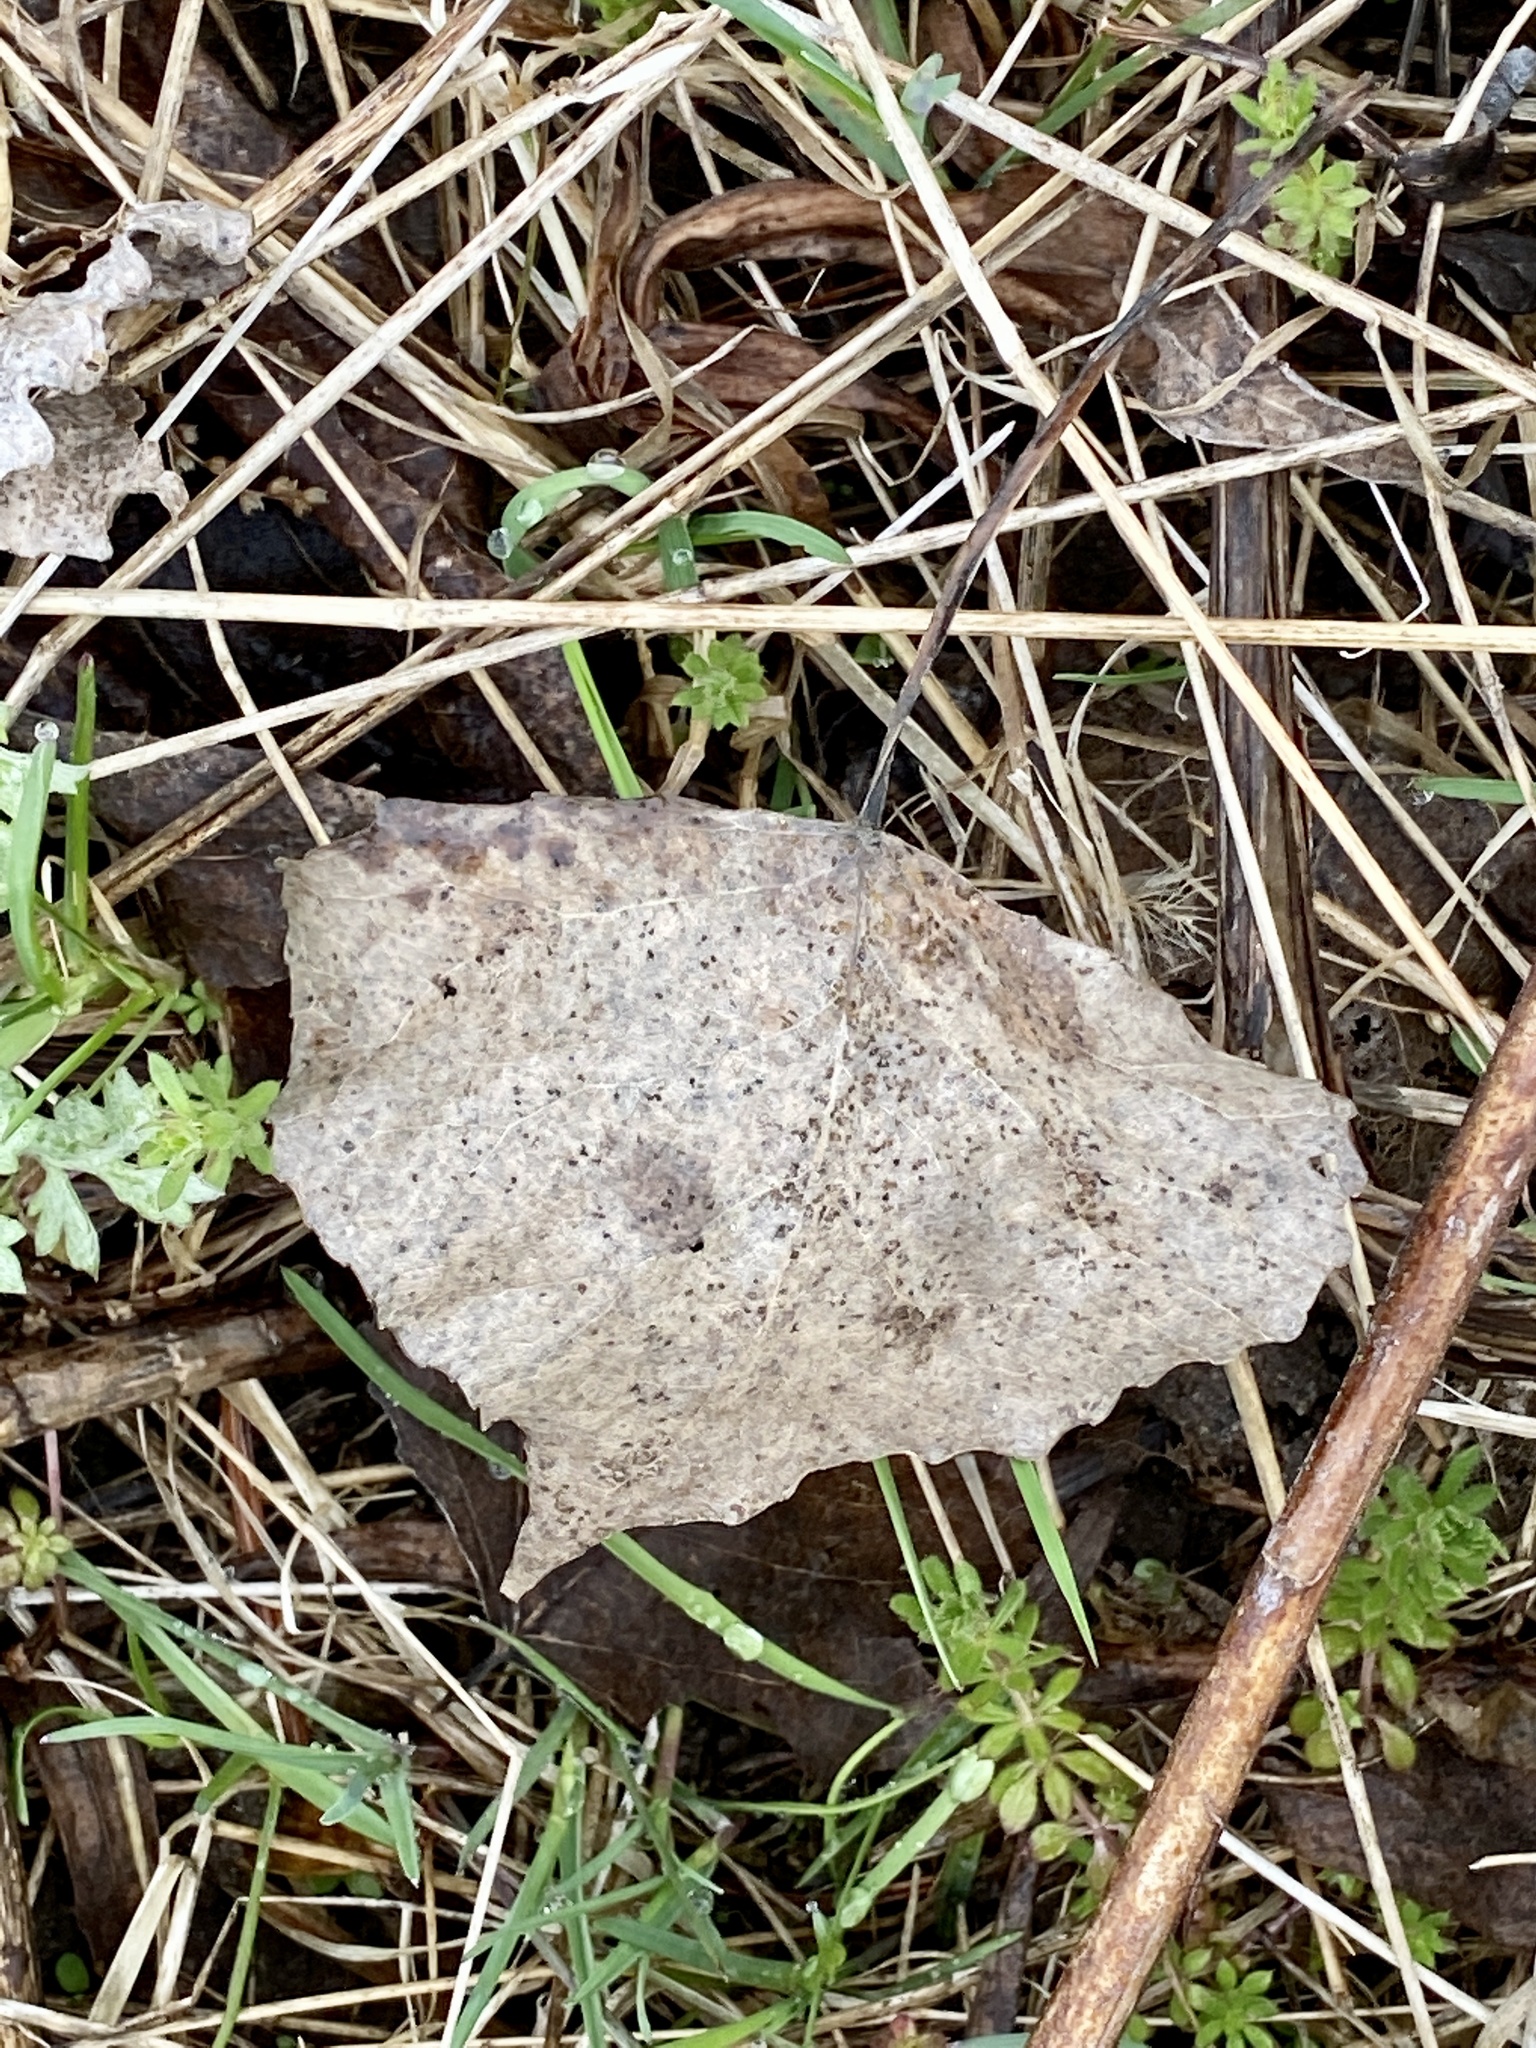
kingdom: Plantae
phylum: Tracheophyta
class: Magnoliopsida
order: Malpighiales
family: Salicaceae
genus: Populus
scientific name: Populus deltoides
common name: Eastern cottonwood
